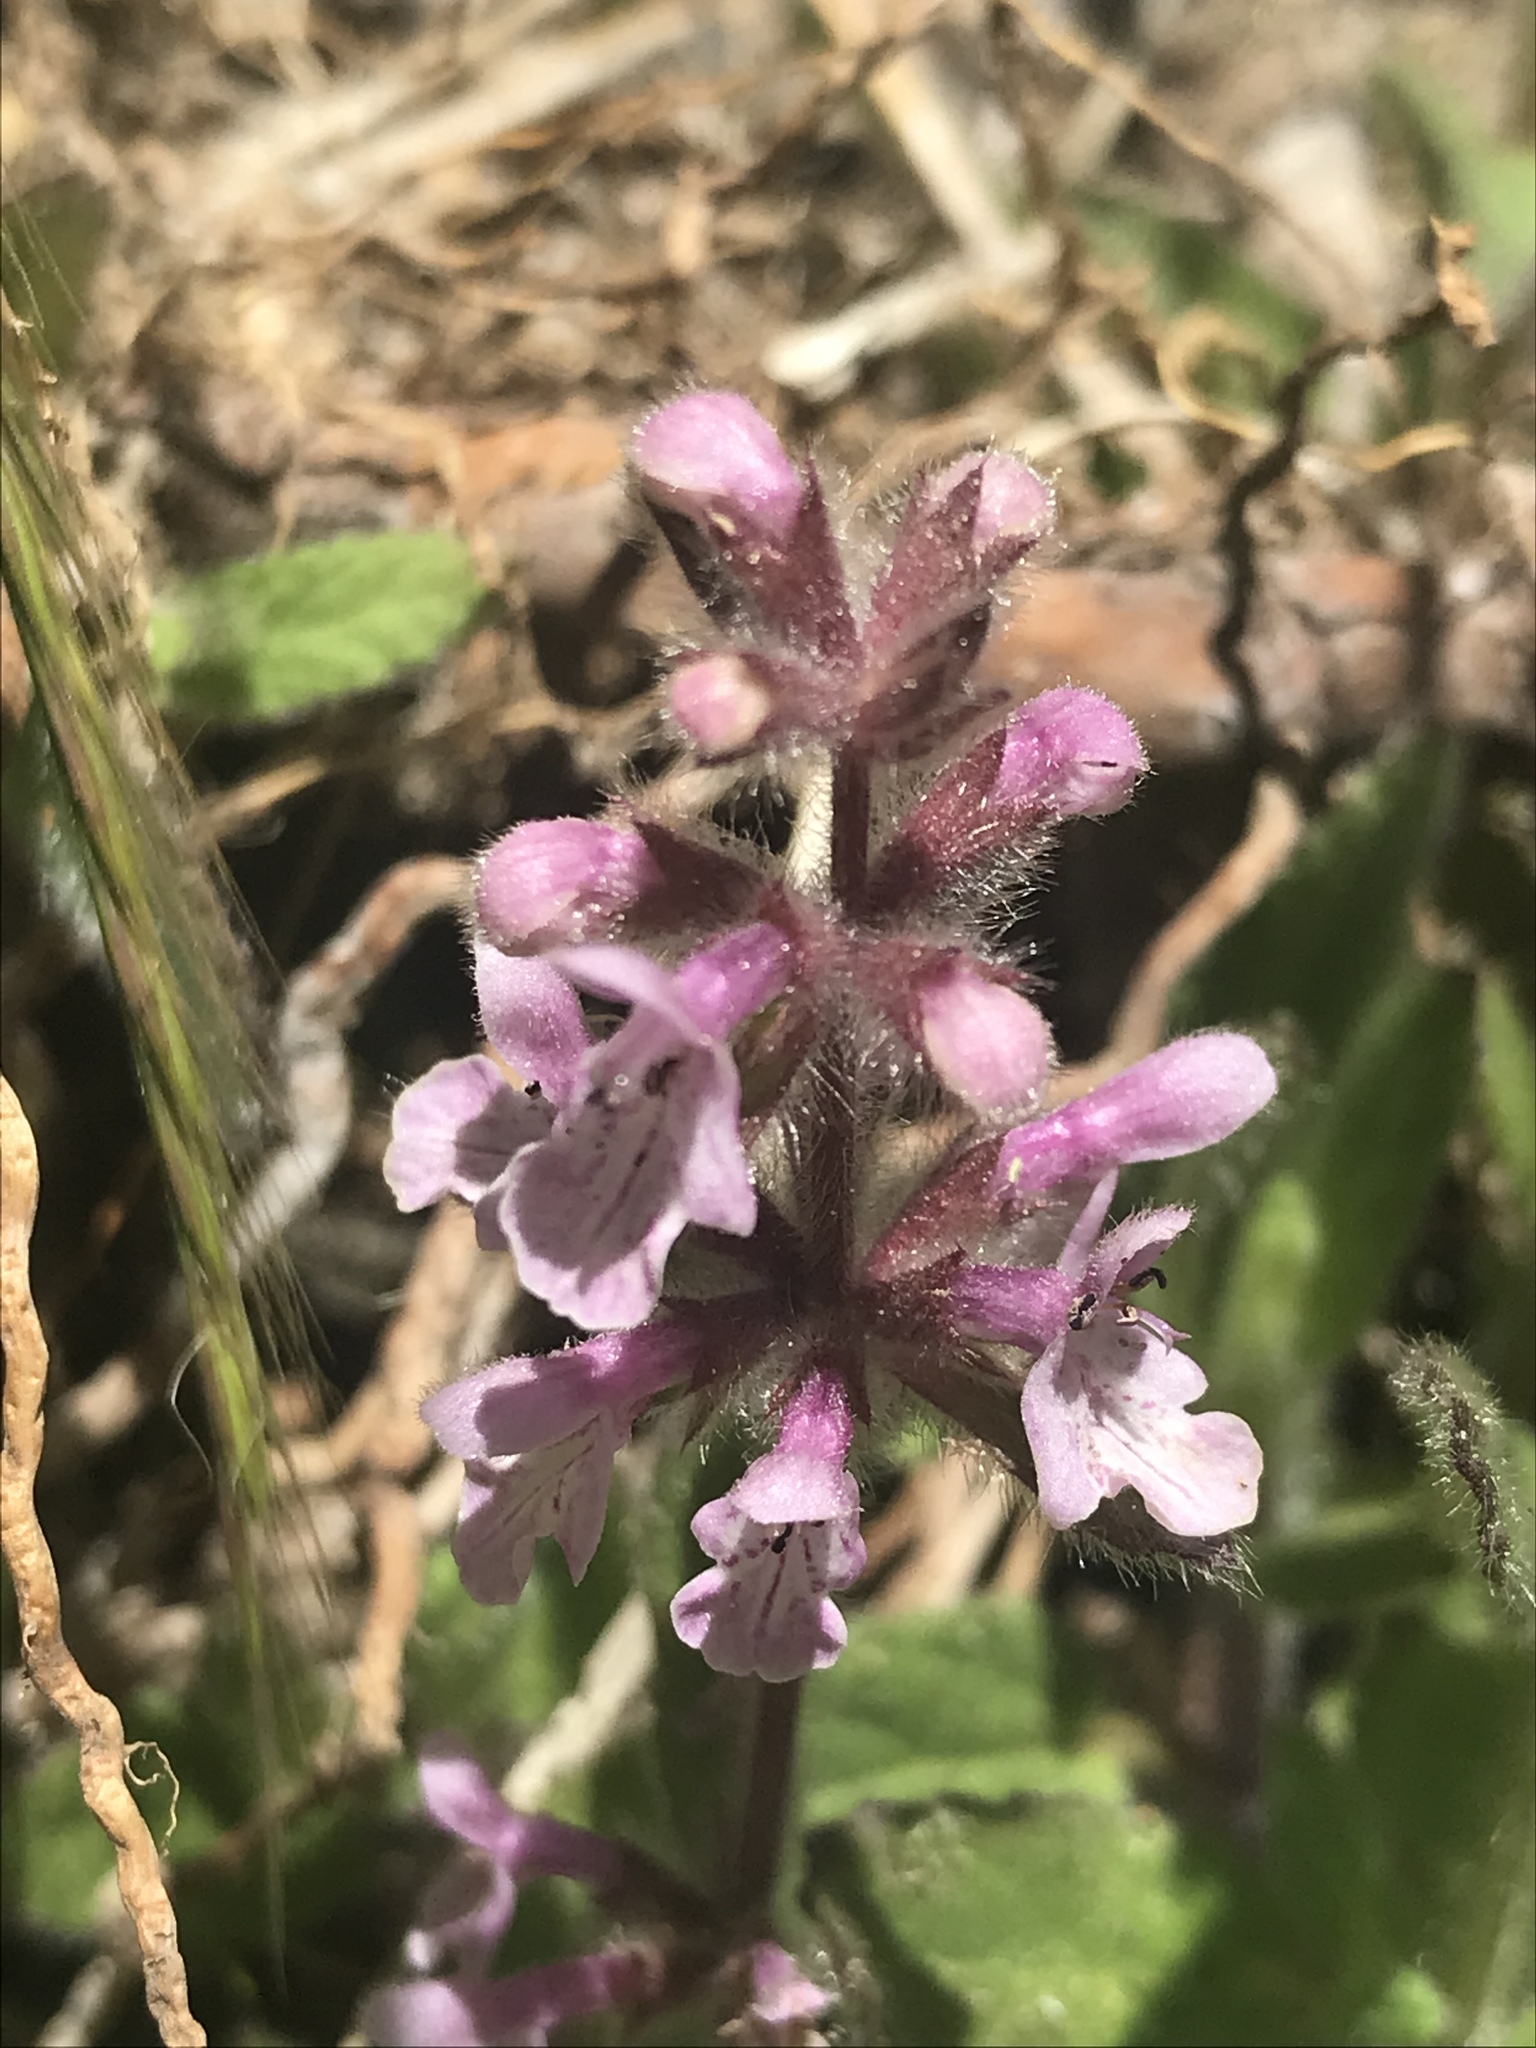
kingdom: Plantae
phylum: Tracheophyta
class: Magnoliopsida
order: Lamiales
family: Lamiaceae
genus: Stachys
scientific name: Stachys ajugoides
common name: Hedge-nettle
